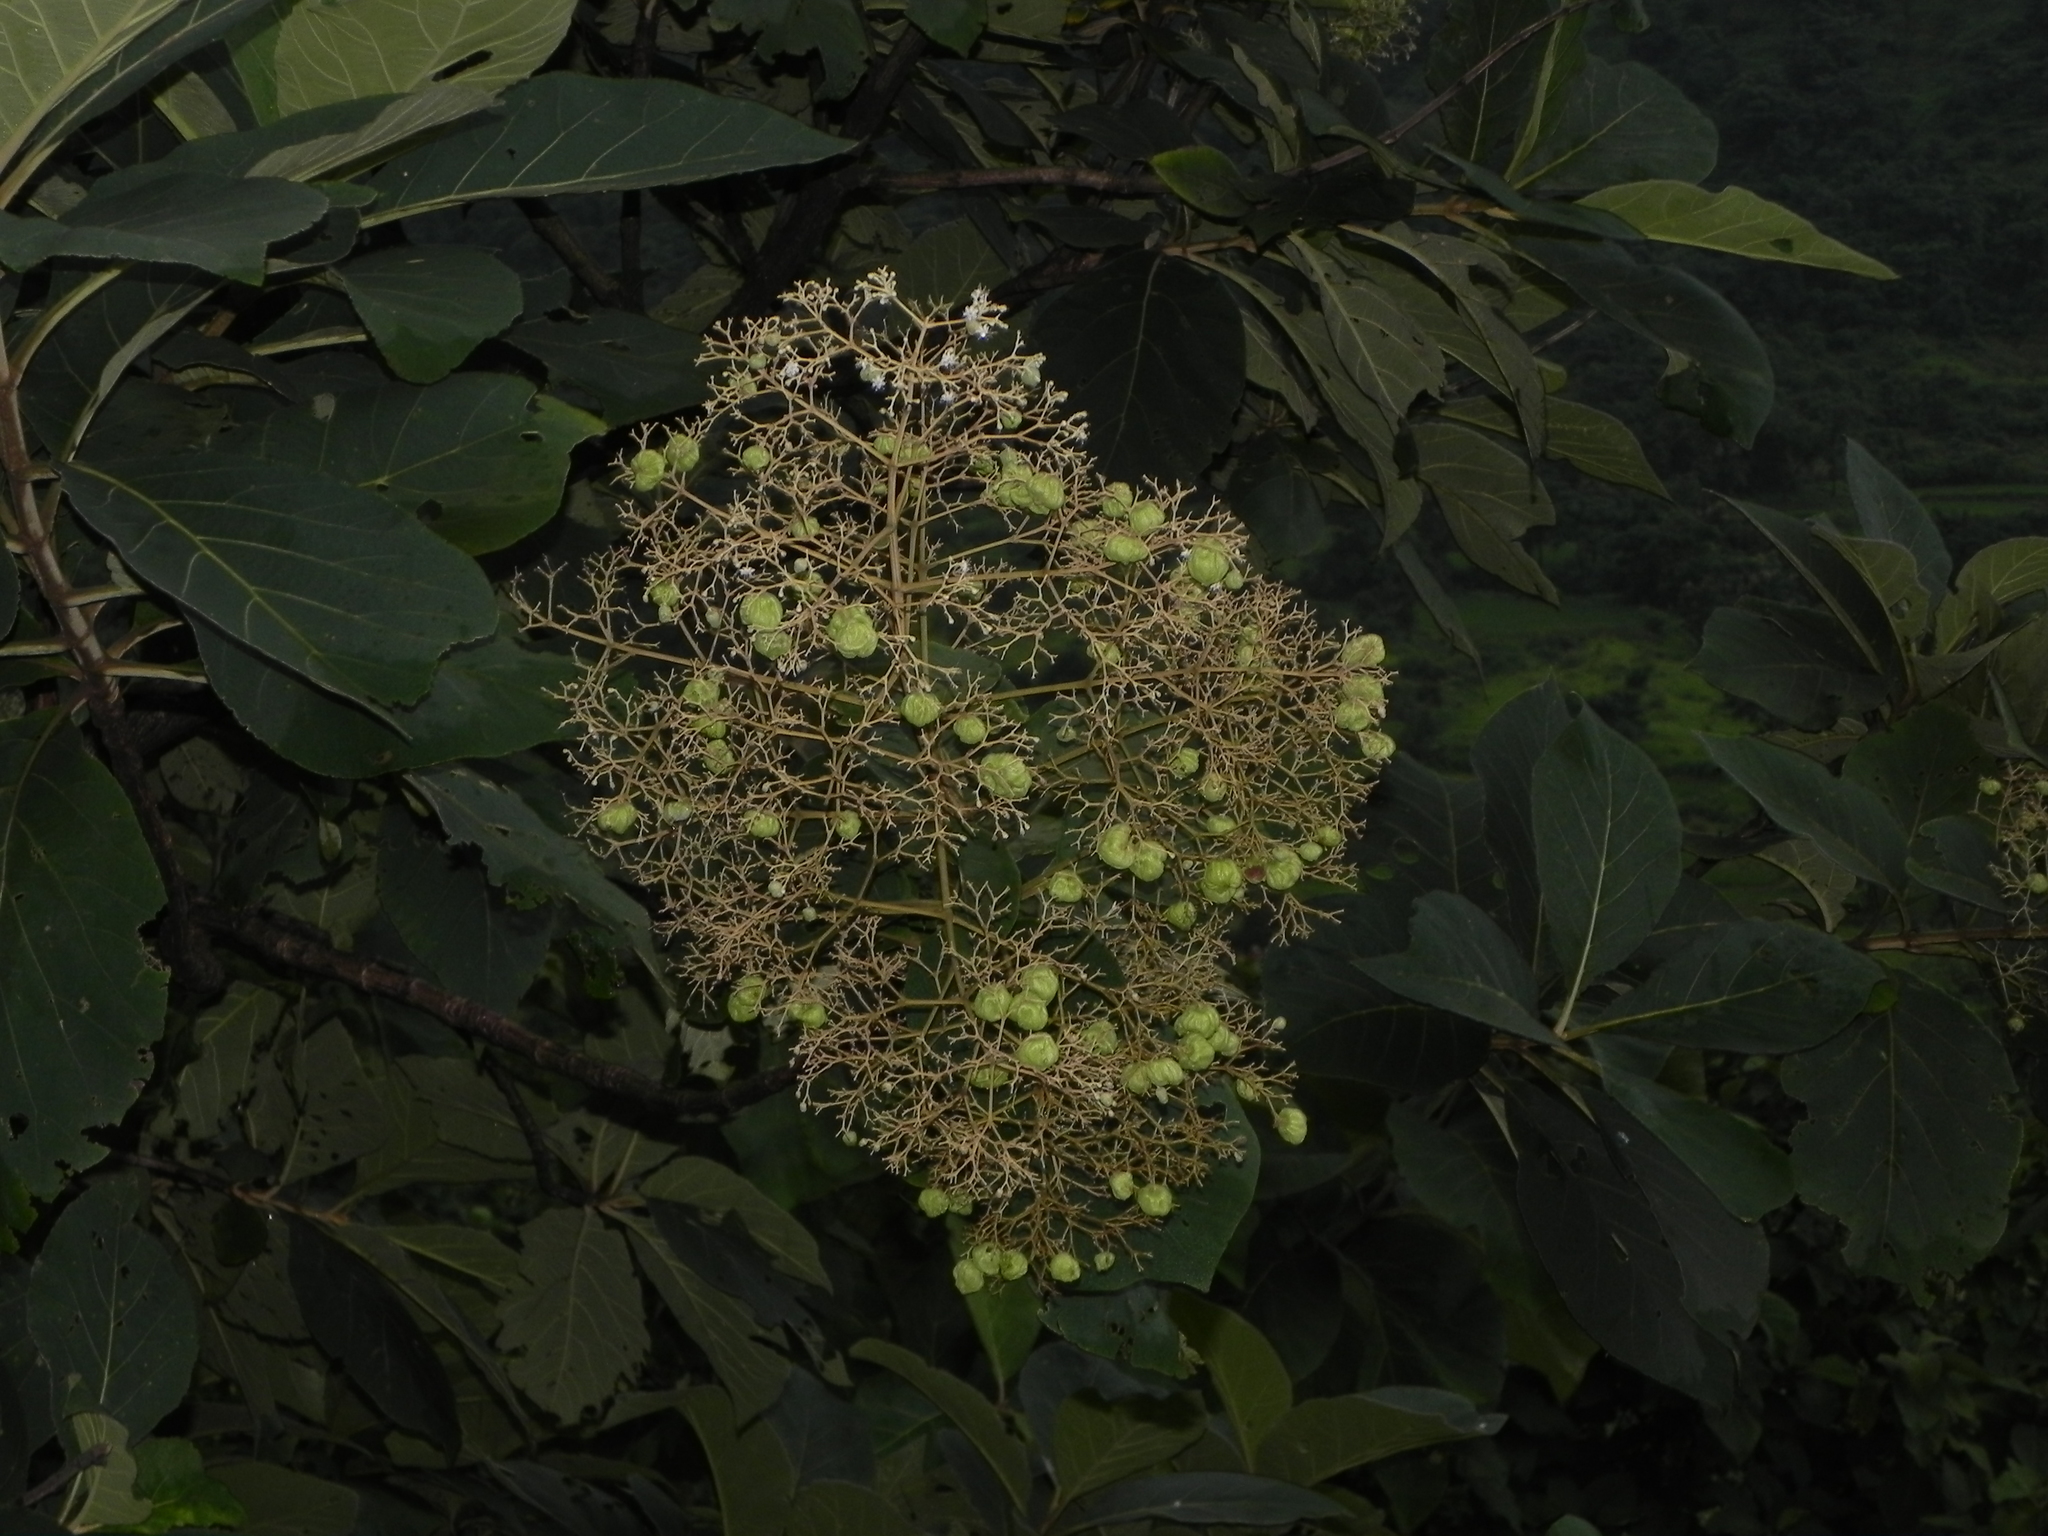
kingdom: Plantae
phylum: Tracheophyta
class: Magnoliopsida
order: Lamiales
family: Lamiaceae
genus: Tectona
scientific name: Tectona grandis
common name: Teak
